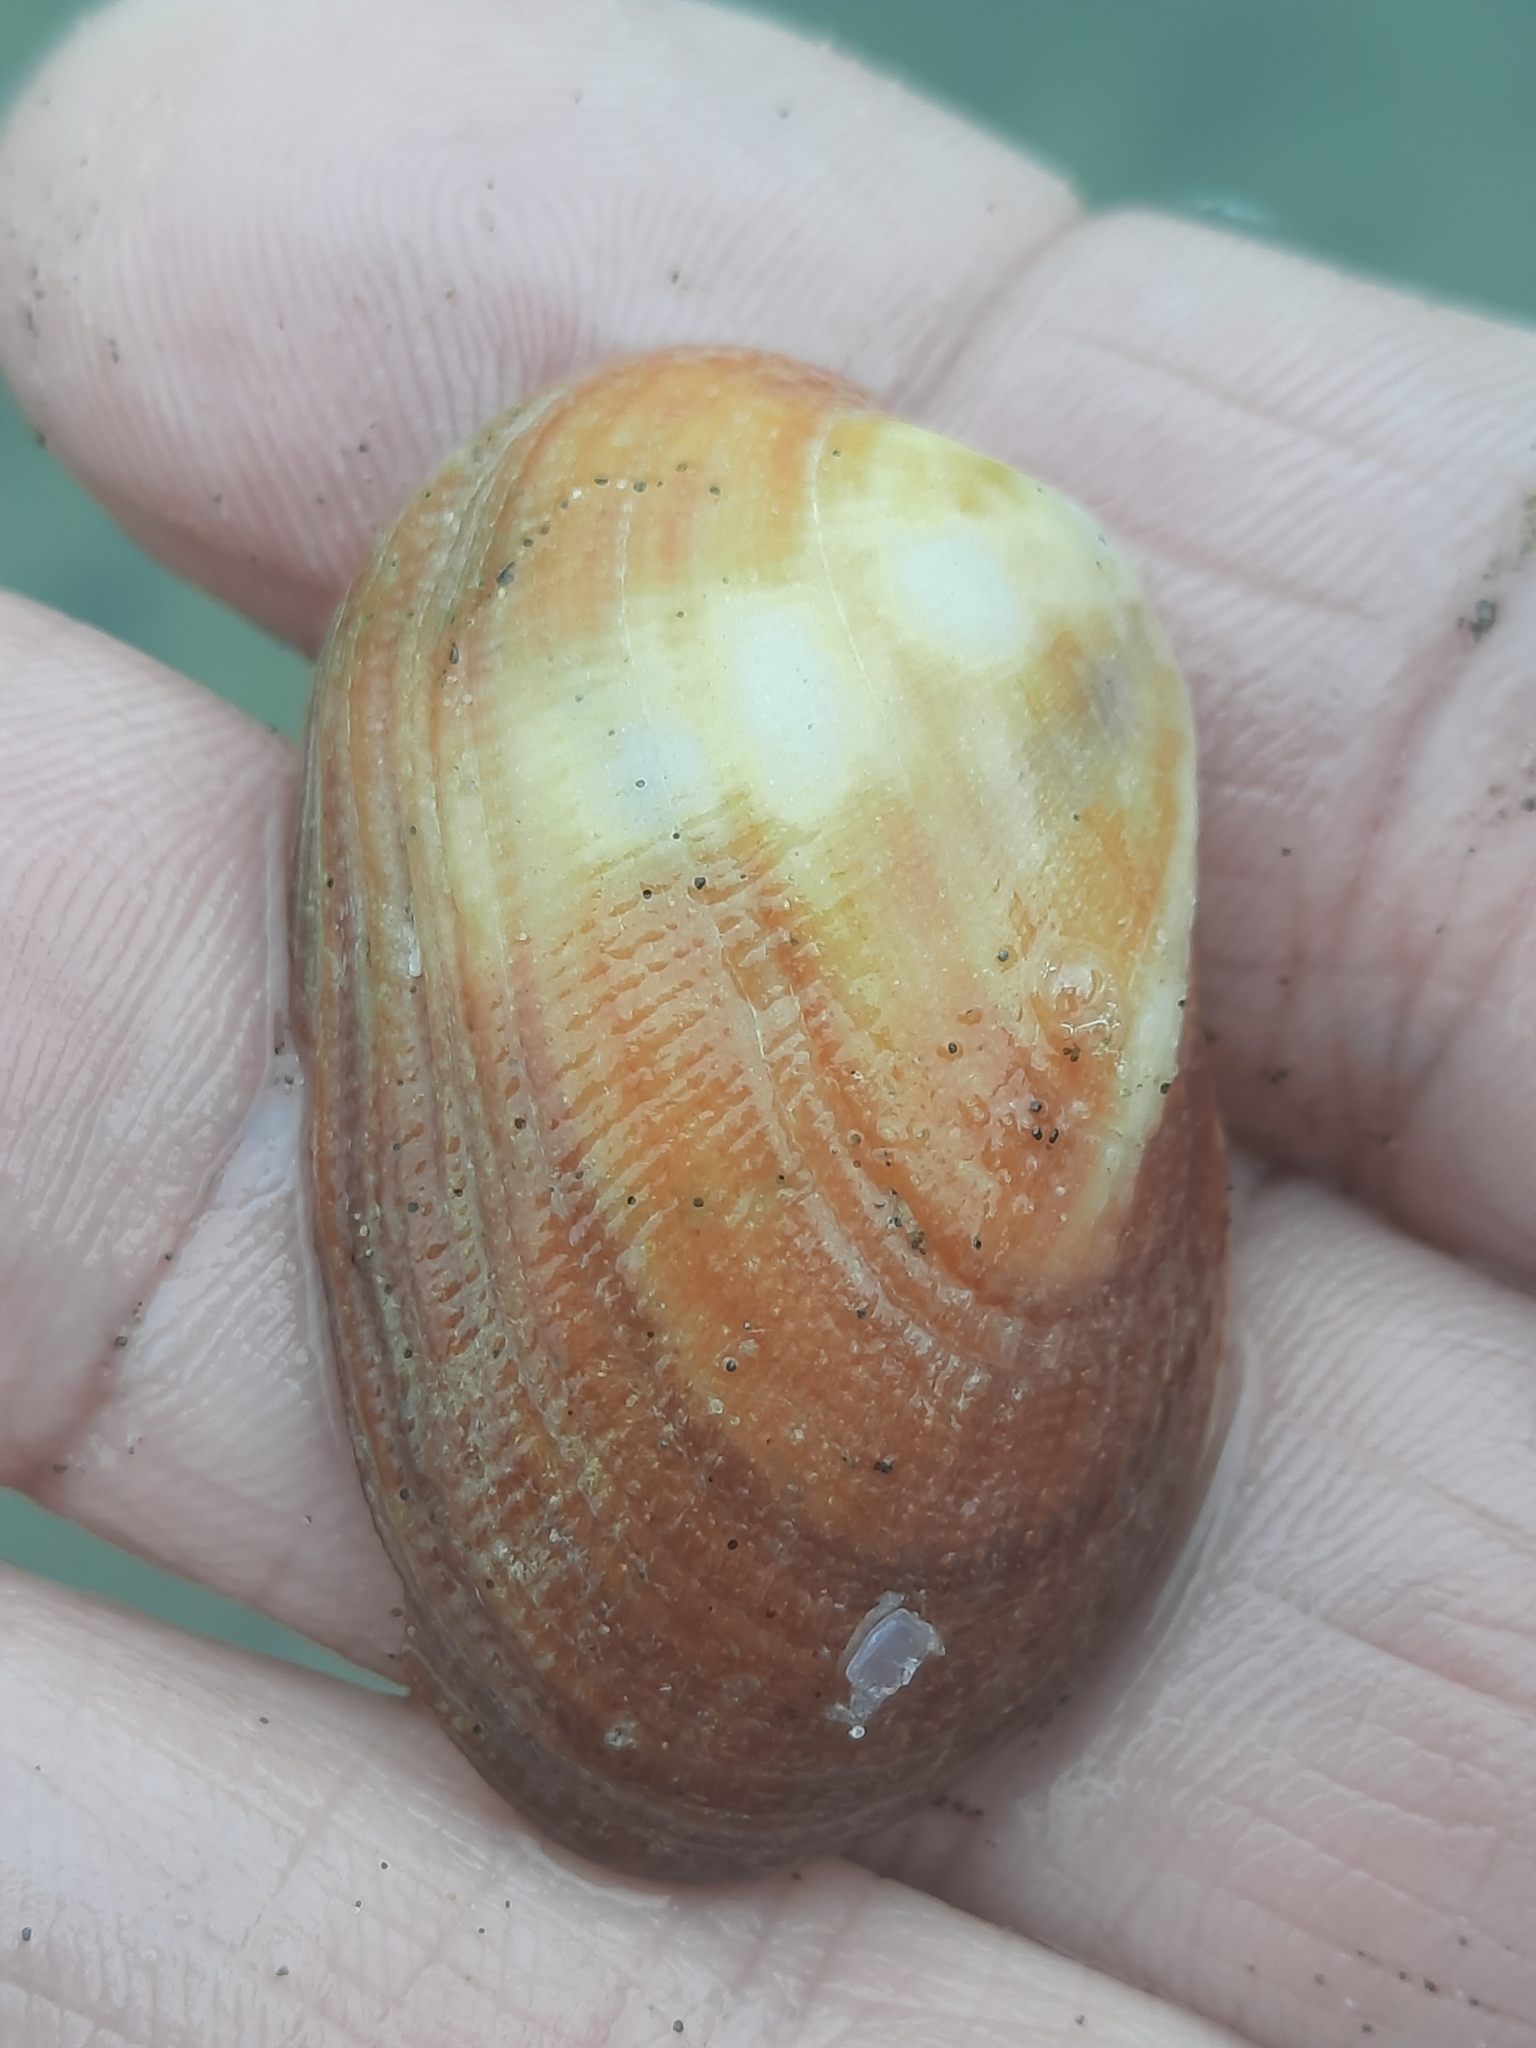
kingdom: Animalia
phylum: Mollusca
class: Bivalvia
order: Arcida
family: Arcidae
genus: Barbatia
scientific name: Barbatia amygdalumtostum
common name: Burnt-almond ark
